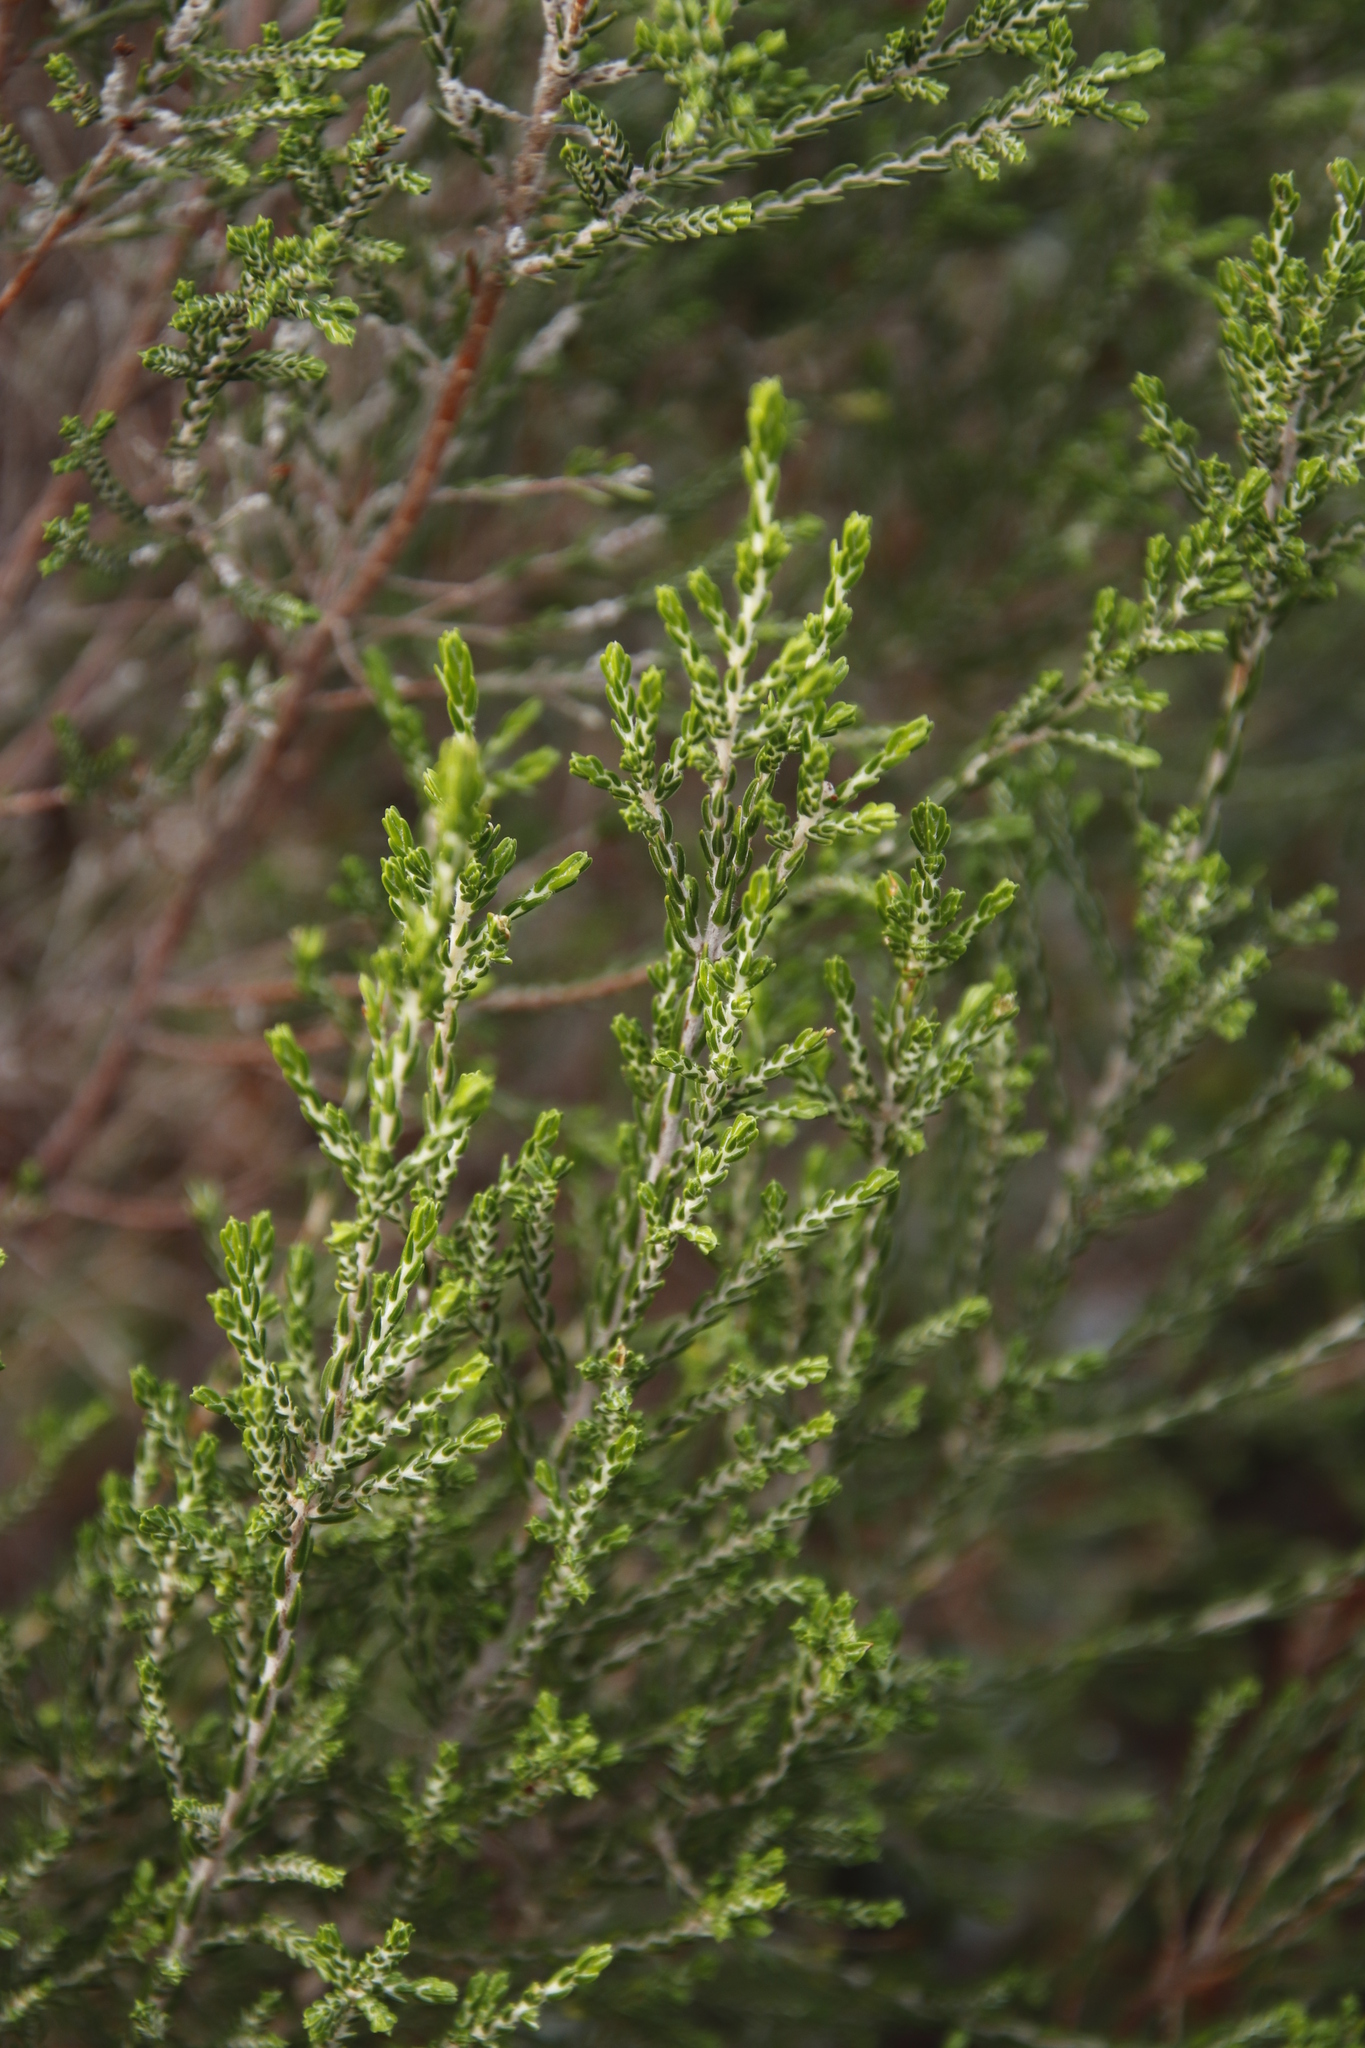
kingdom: Plantae
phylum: Tracheophyta
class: Magnoliopsida
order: Malvales
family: Thymelaeaceae
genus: Passerina
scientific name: Passerina corymbosa
